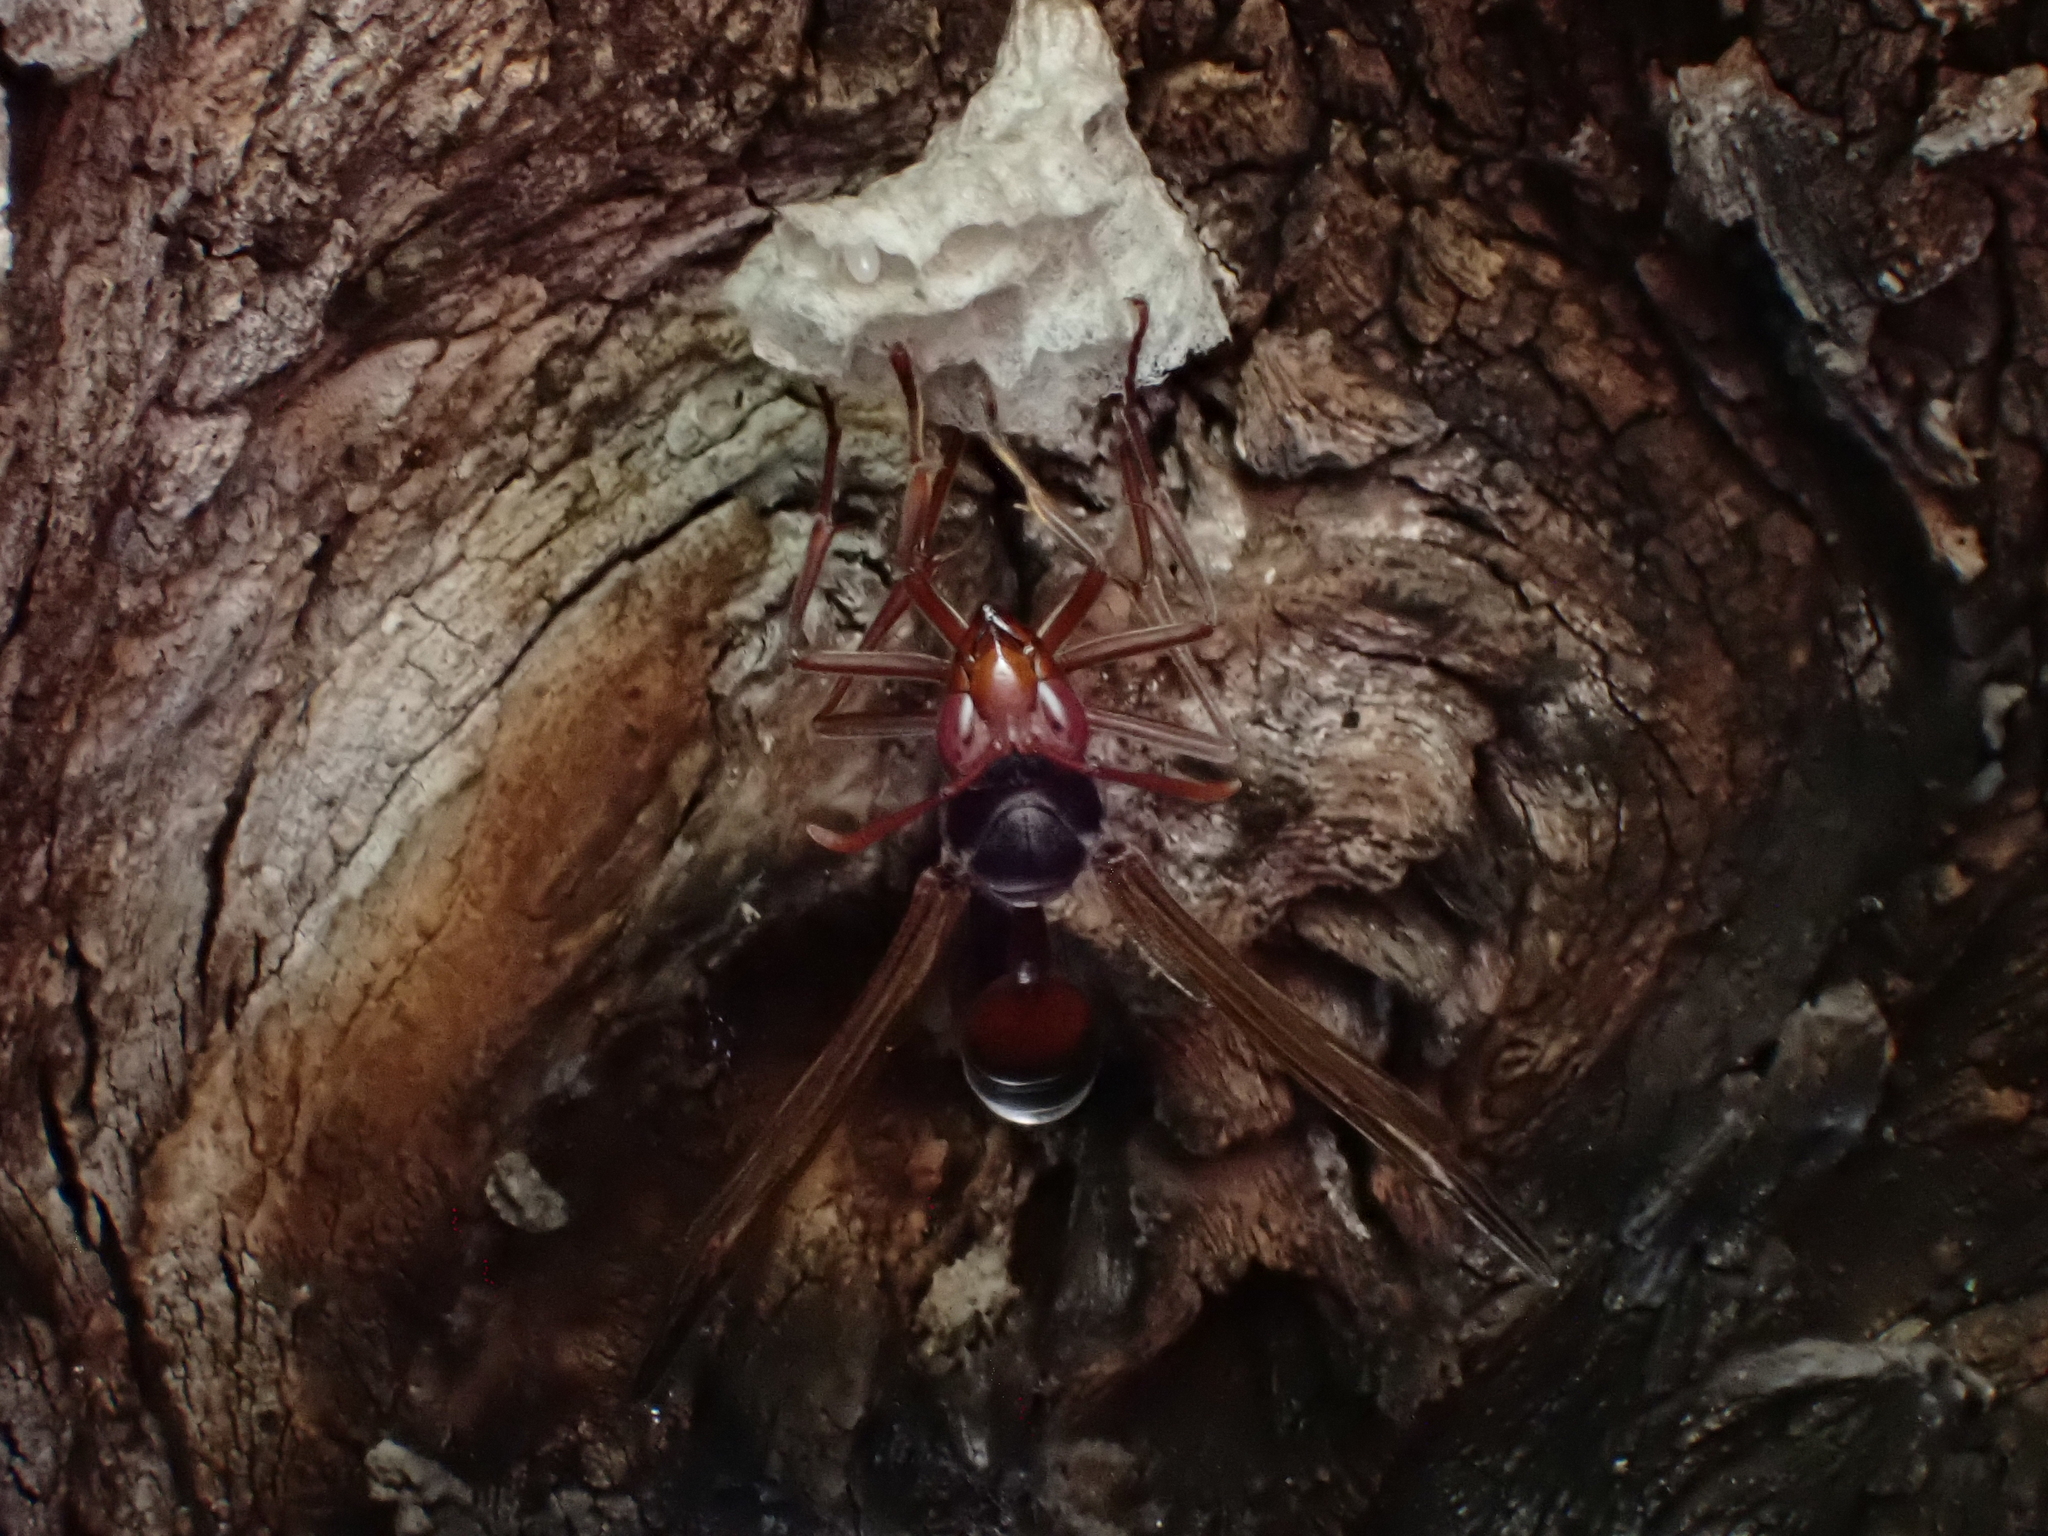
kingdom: Animalia
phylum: Arthropoda
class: Insecta
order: Hymenoptera
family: Eumenidae
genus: Belonogaster
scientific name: Belonogaster
